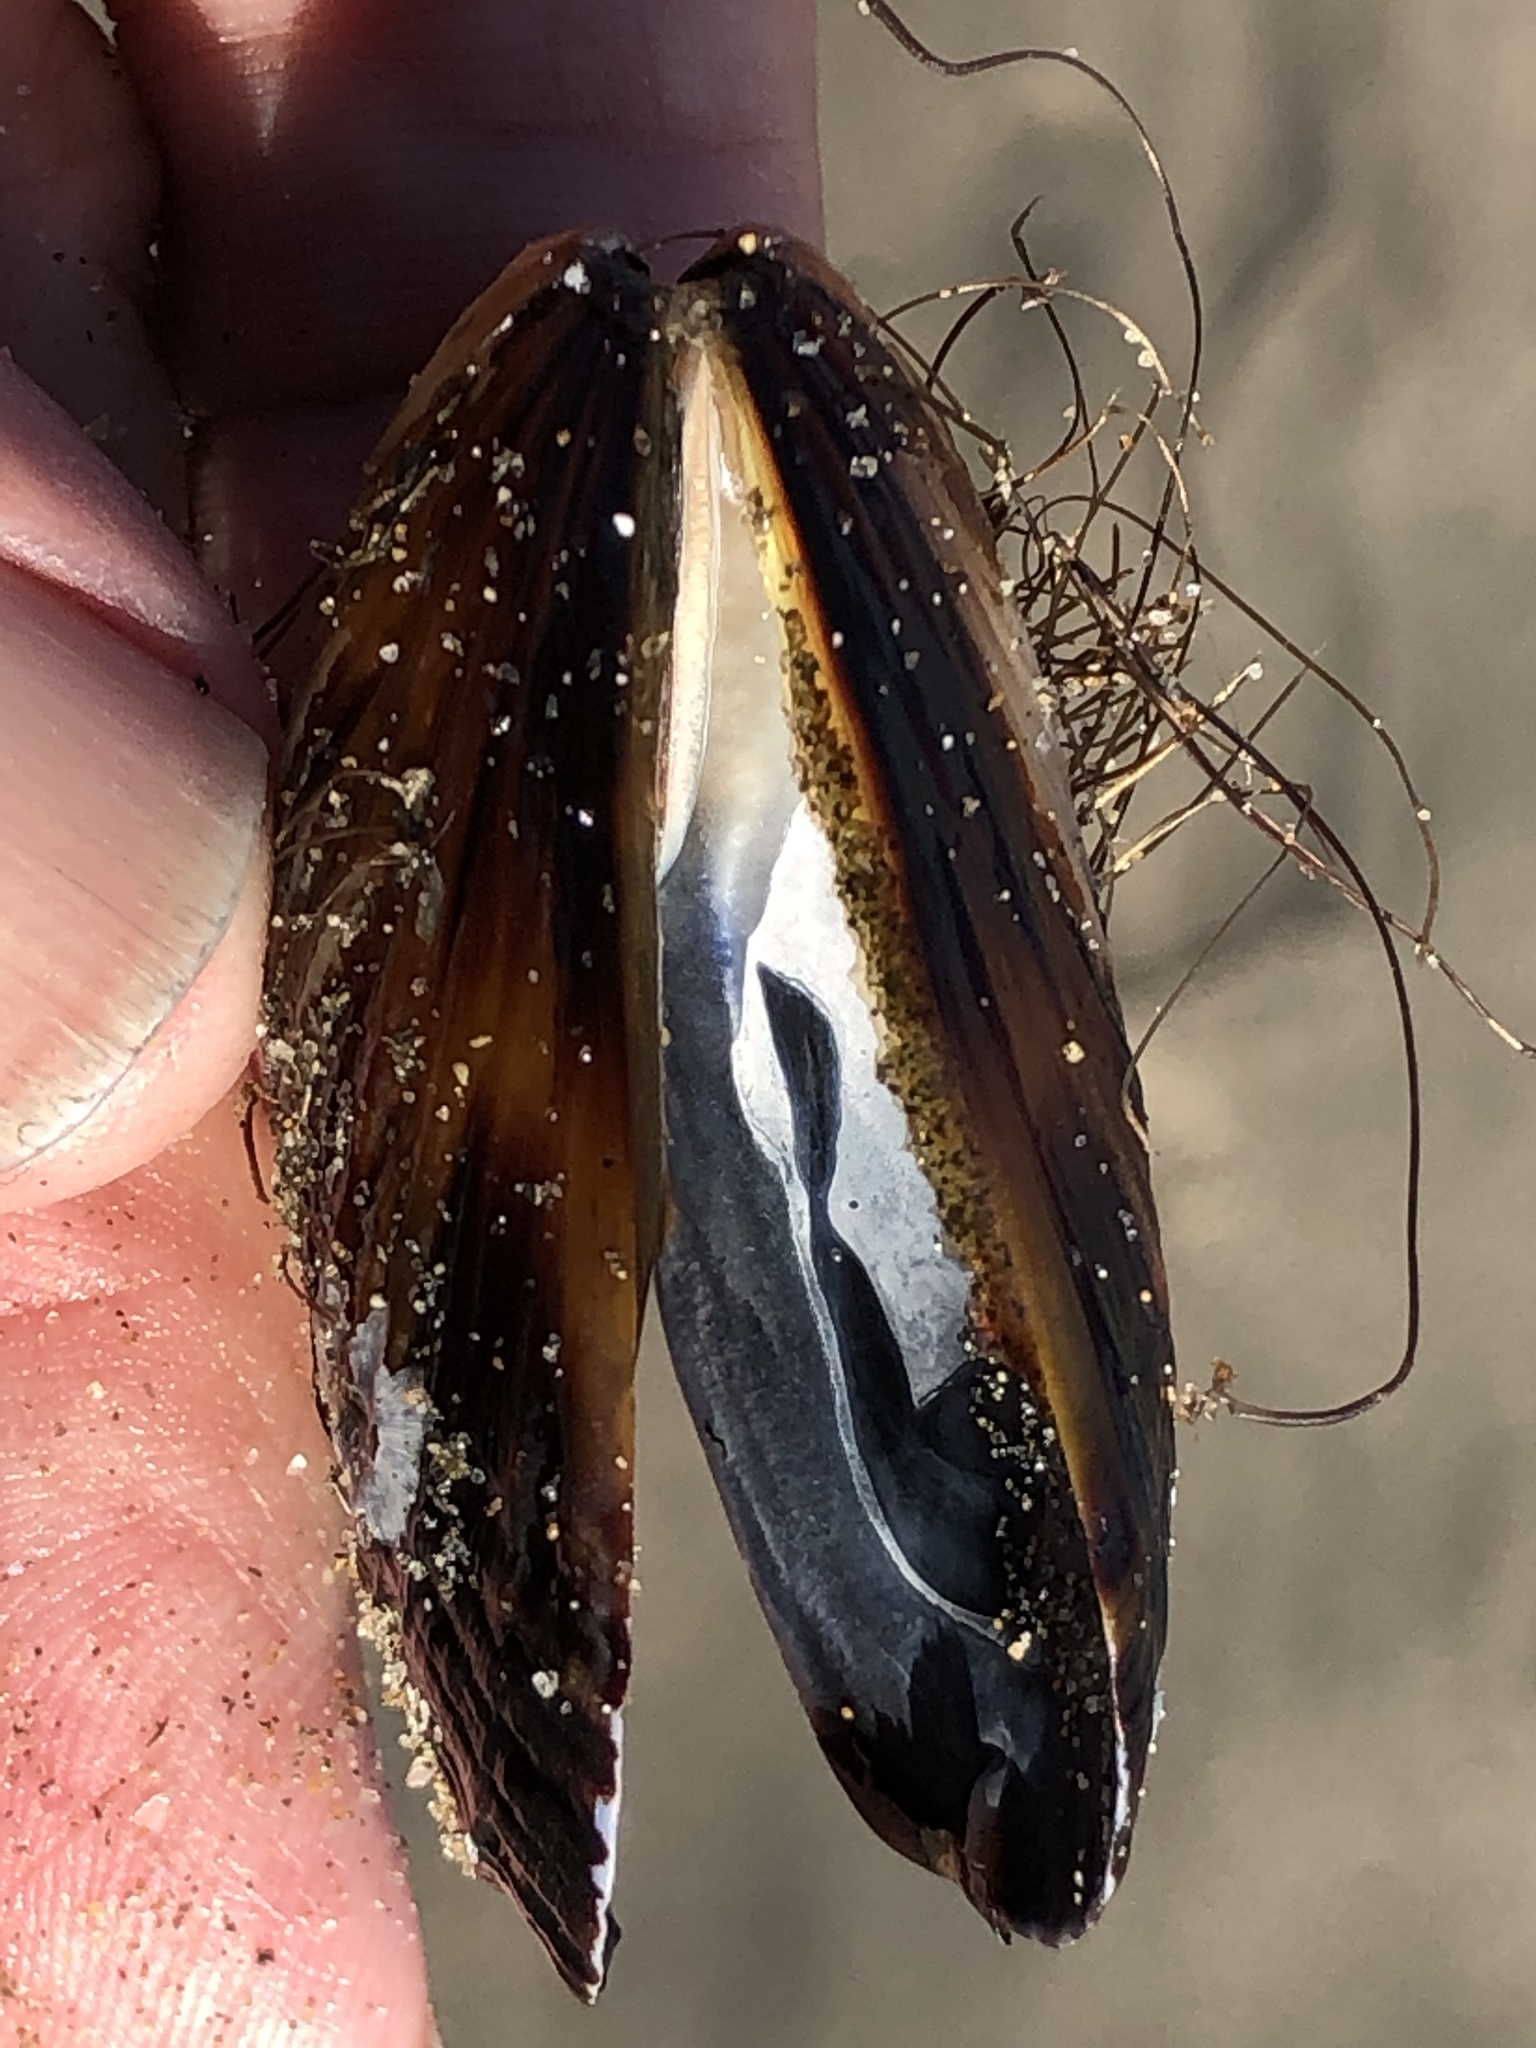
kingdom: Animalia
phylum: Mollusca
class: Bivalvia
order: Mytilida
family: Mytilidae
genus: Mytilus
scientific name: Mytilus californianus
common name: California mussel
